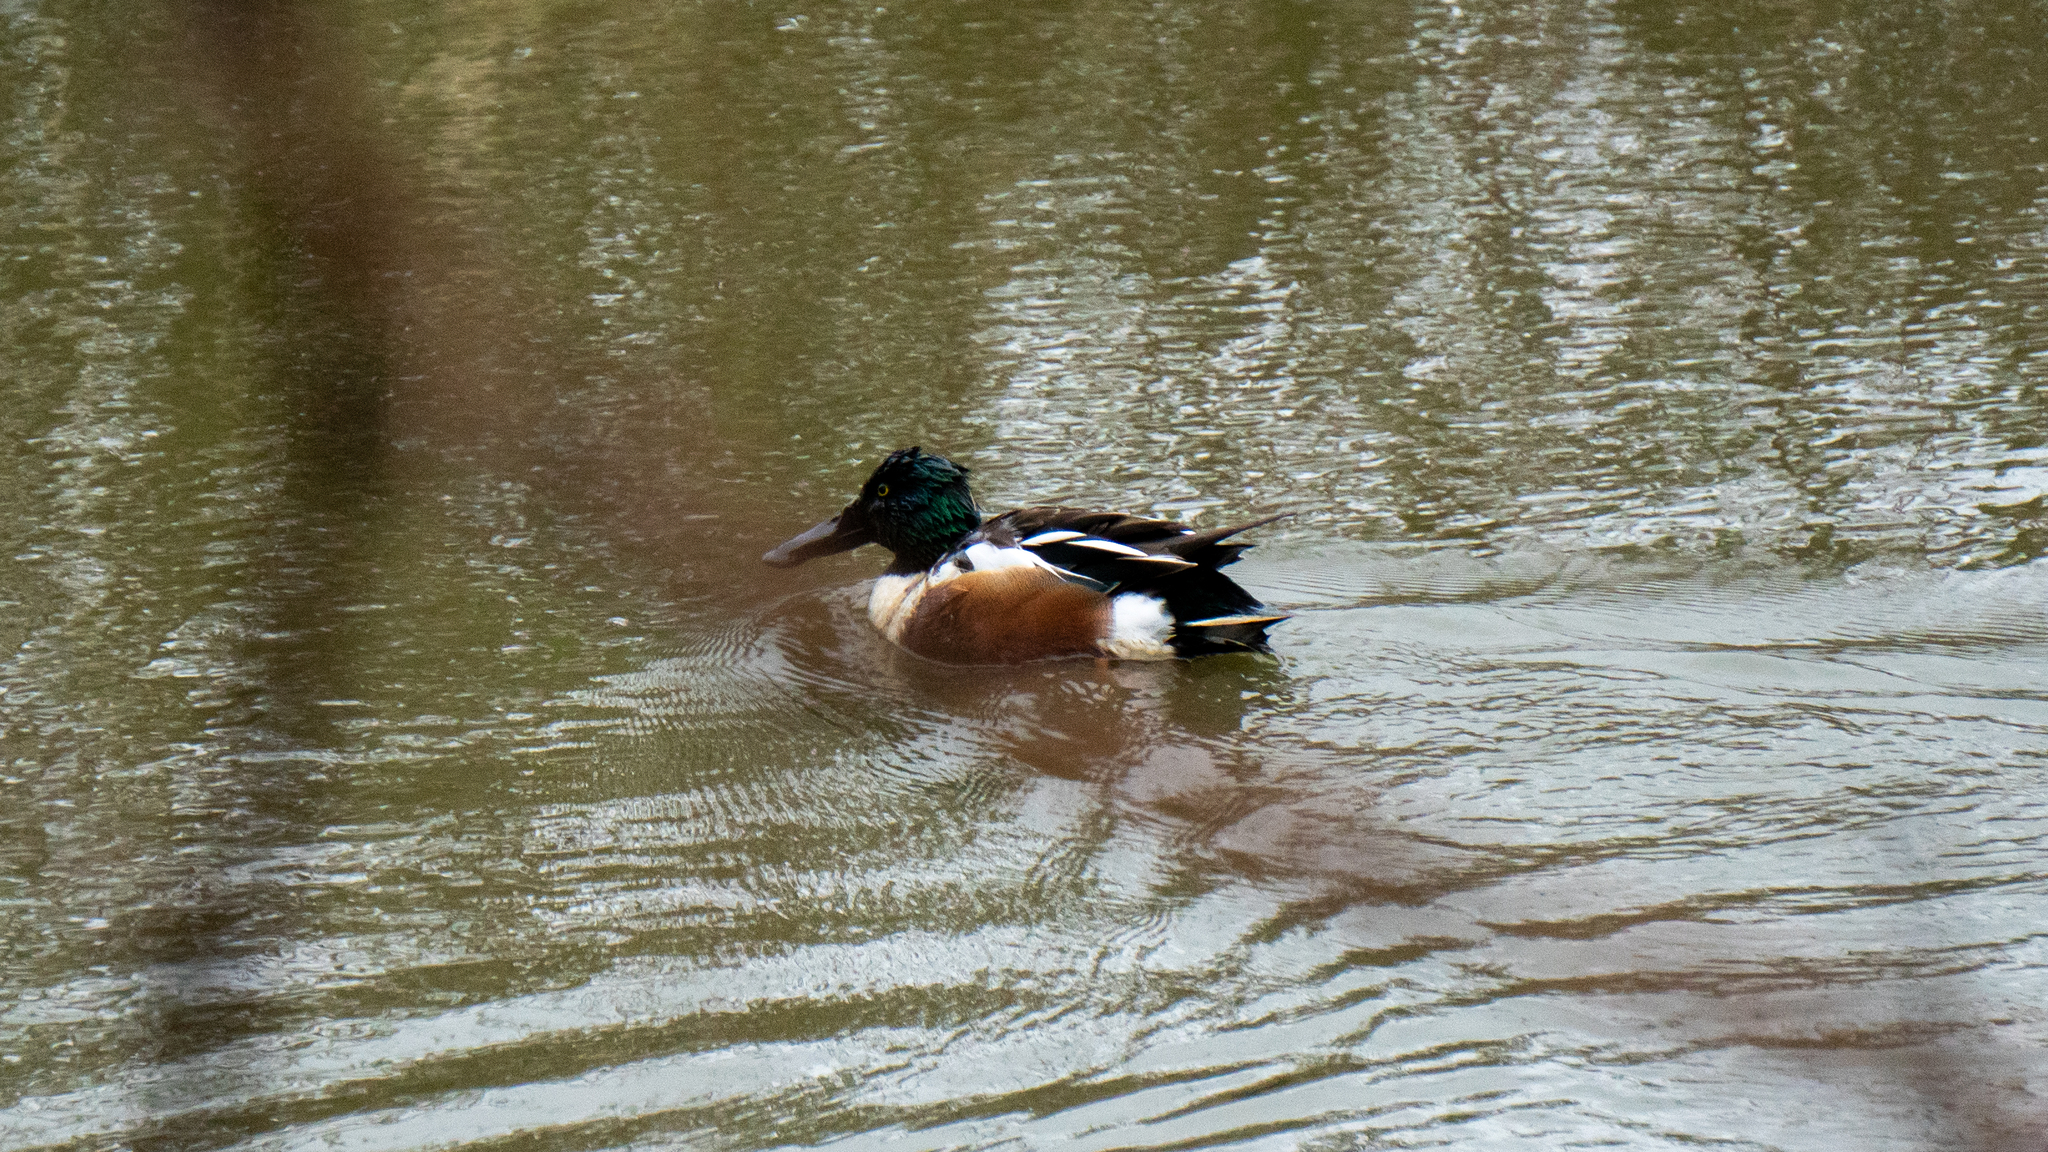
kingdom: Animalia
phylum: Chordata
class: Aves
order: Anseriformes
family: Anatidae
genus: Spatula
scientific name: Spatula clypeata
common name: Northern shoveler
